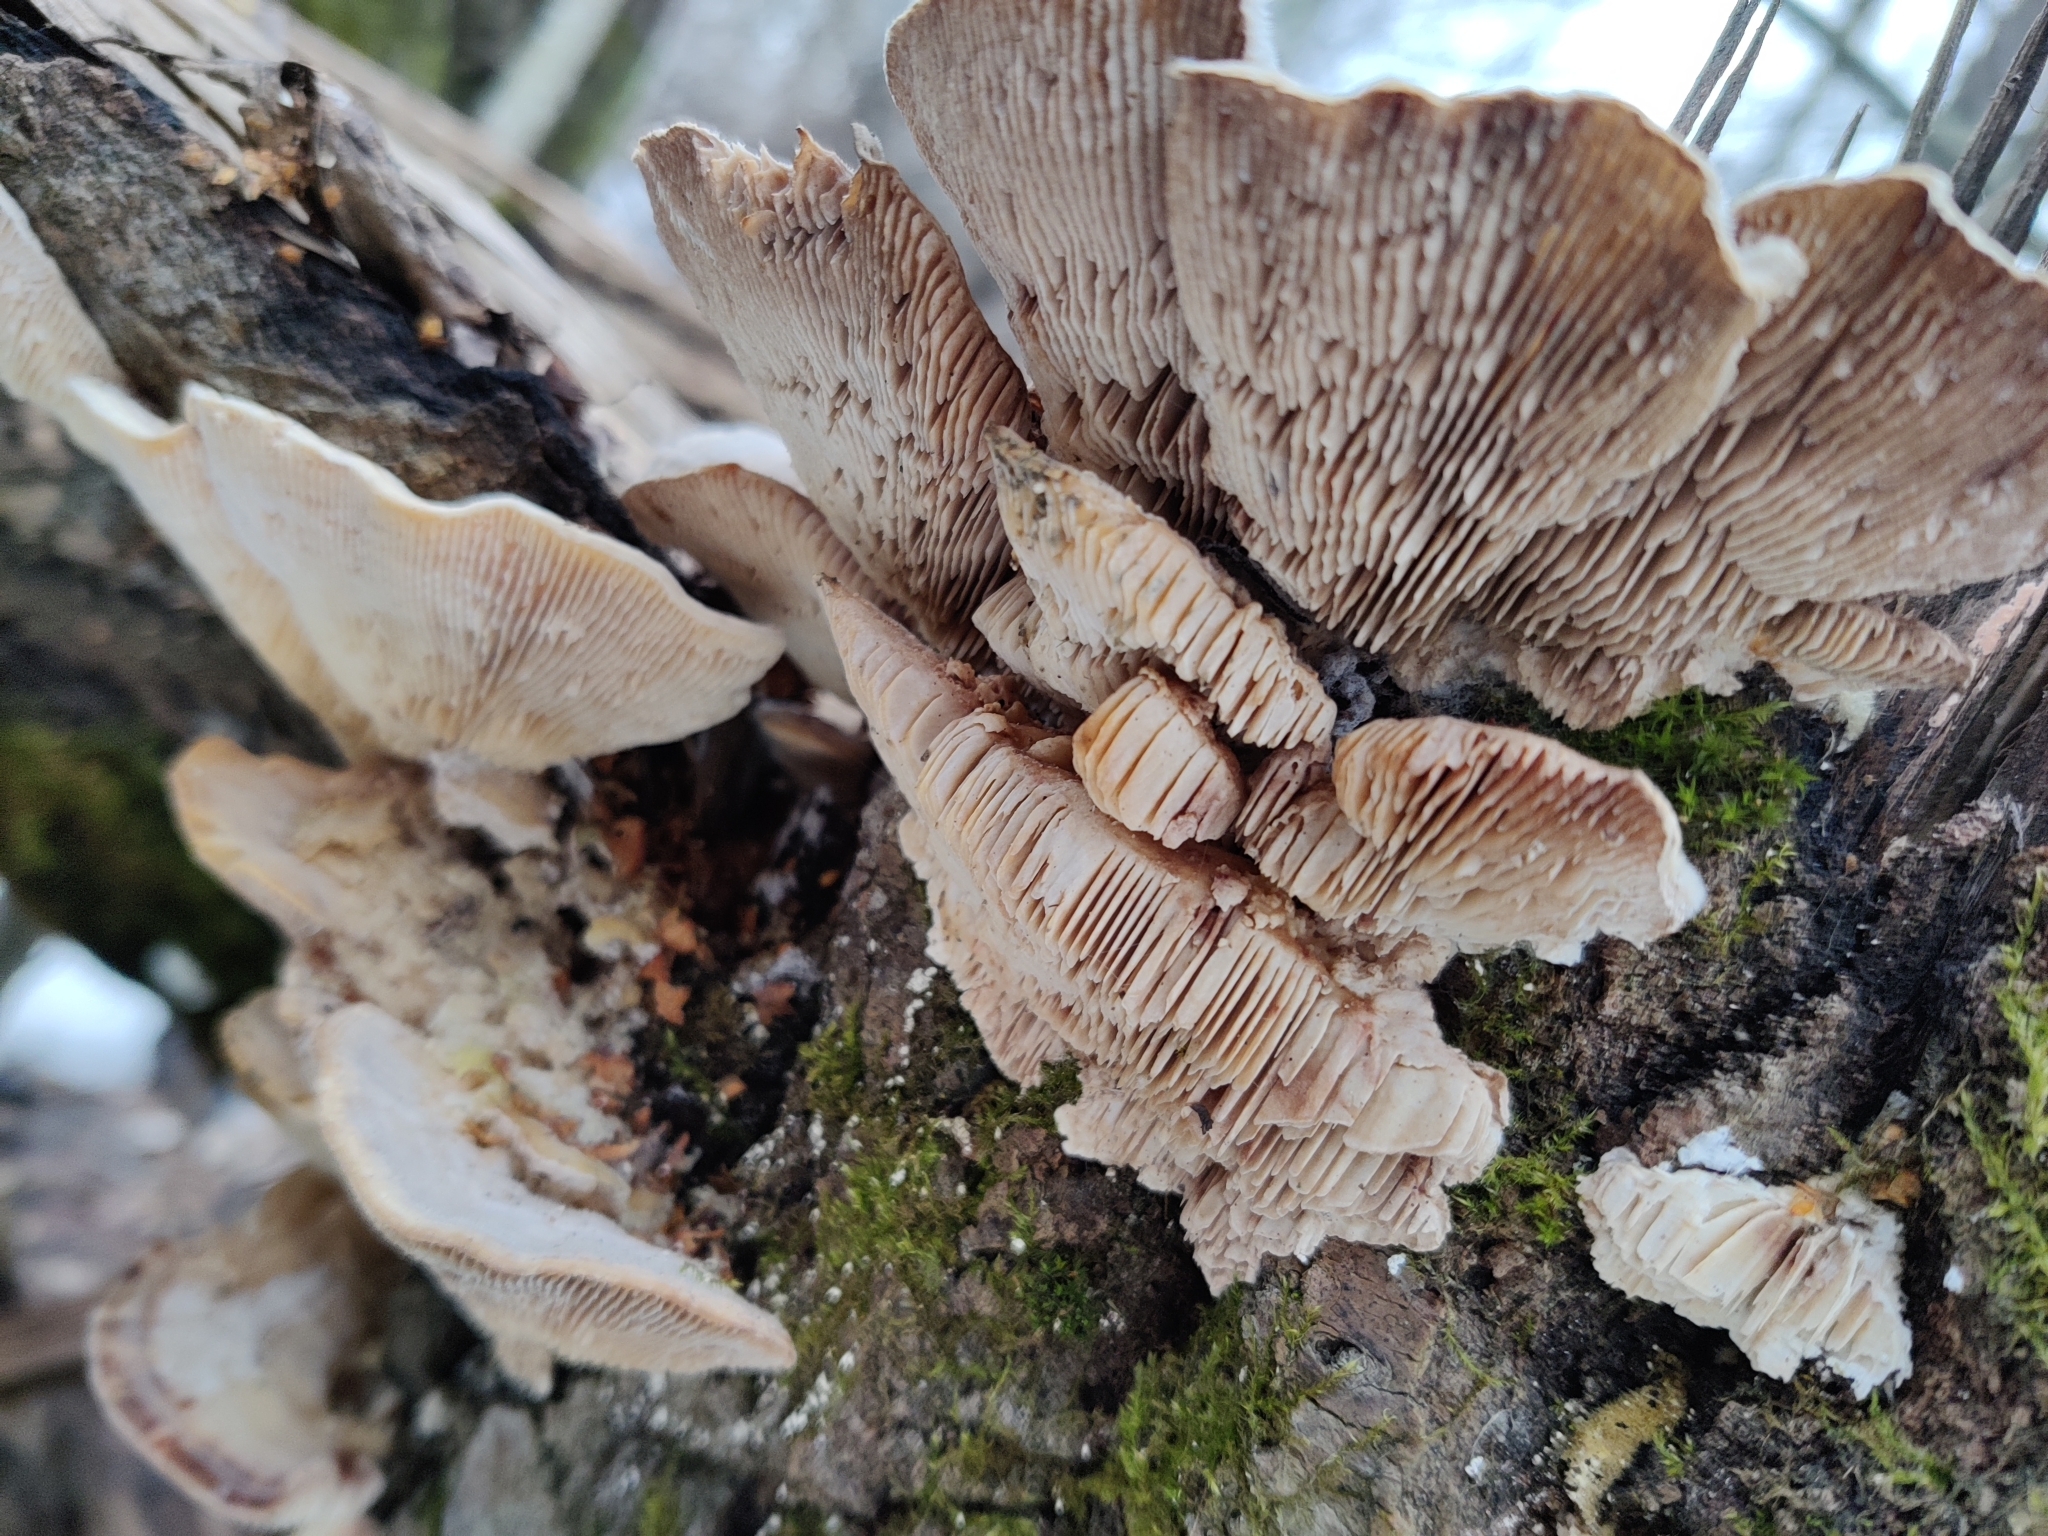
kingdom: Fungi
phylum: Basidiomycota
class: Agaricomycetes
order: Polyporales
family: Polyporaceae
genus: Lenzites
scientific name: Lenzites betulinus
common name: Birch mazegill
